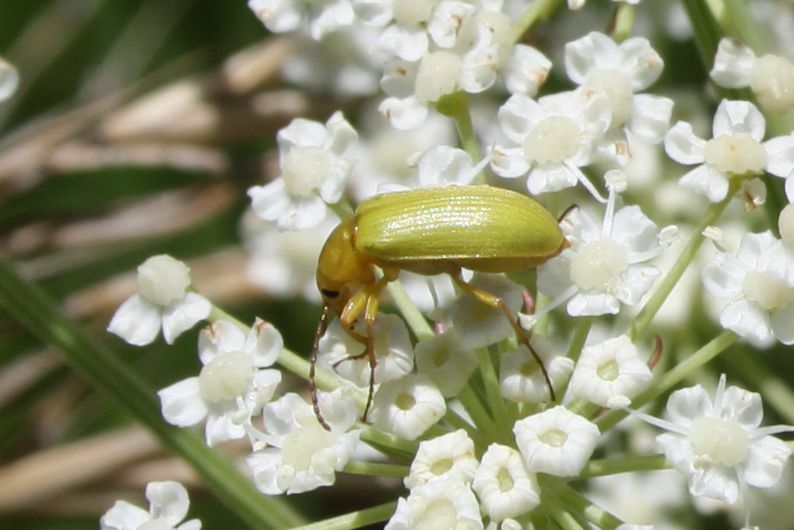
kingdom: Animalia
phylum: Arthropoda
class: Insecta
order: Coleoptera
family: Tenebrionidae
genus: Cteniopus
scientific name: Cteniopus sulphureus
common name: Sulphur beetle
